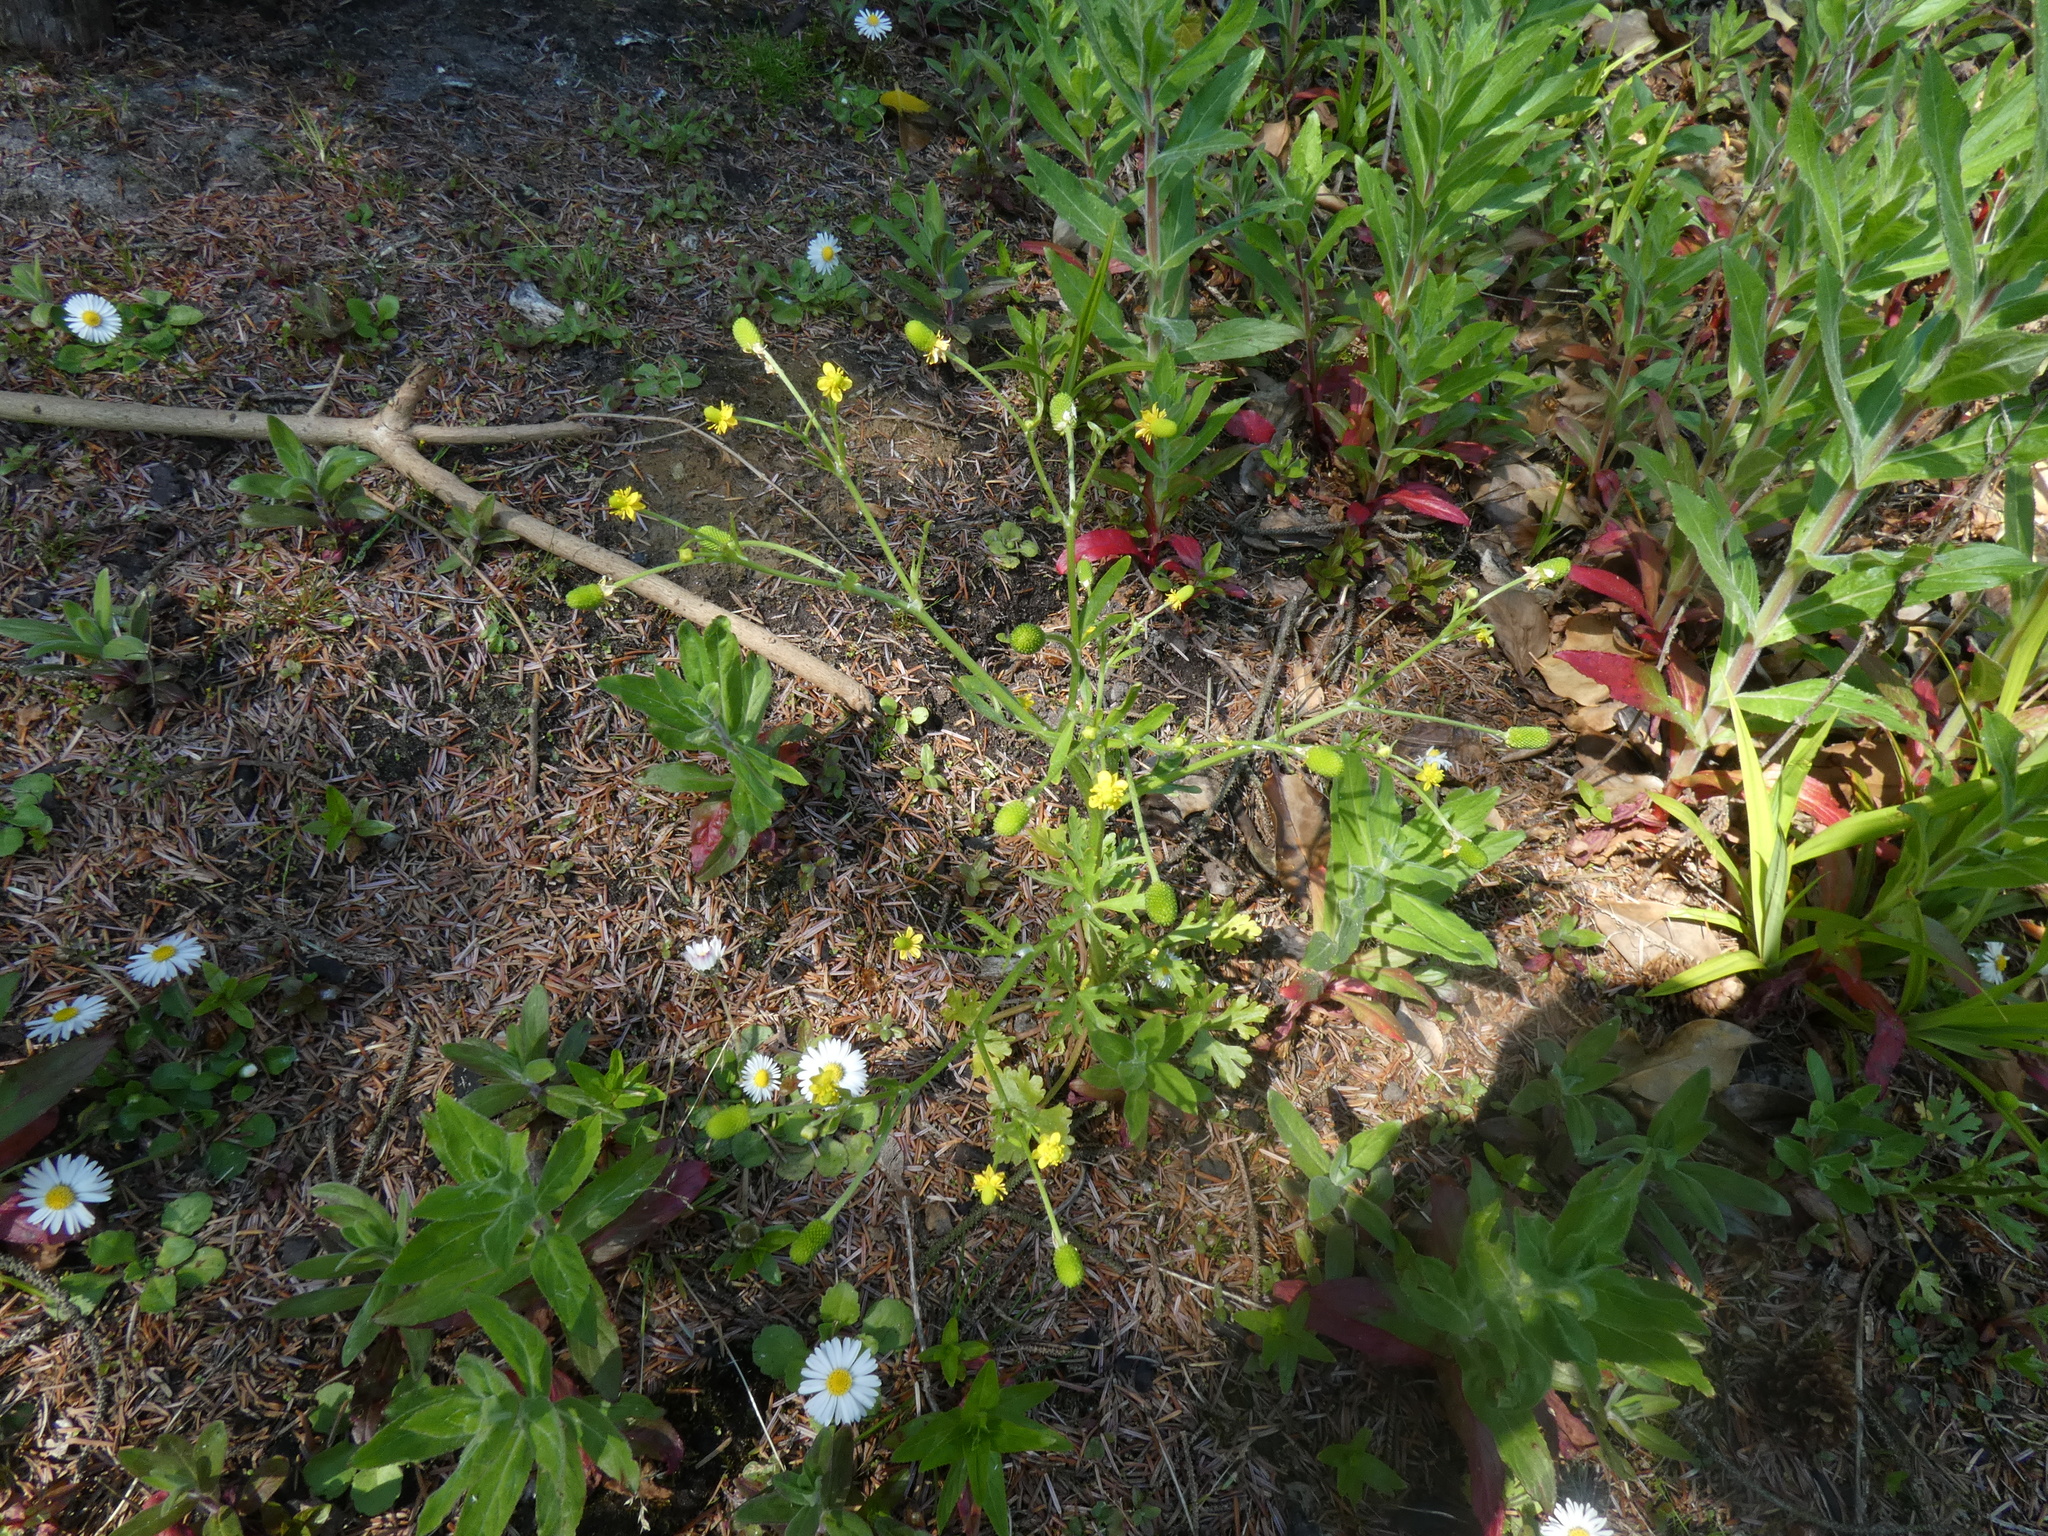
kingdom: Plantae
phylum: Tracheophyta
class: Magnoliopsida
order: Ranunculales
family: Ranunculaceae
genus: Ranunculus
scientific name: Ranunculus sceleratus
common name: Celery-leaved buttercup
